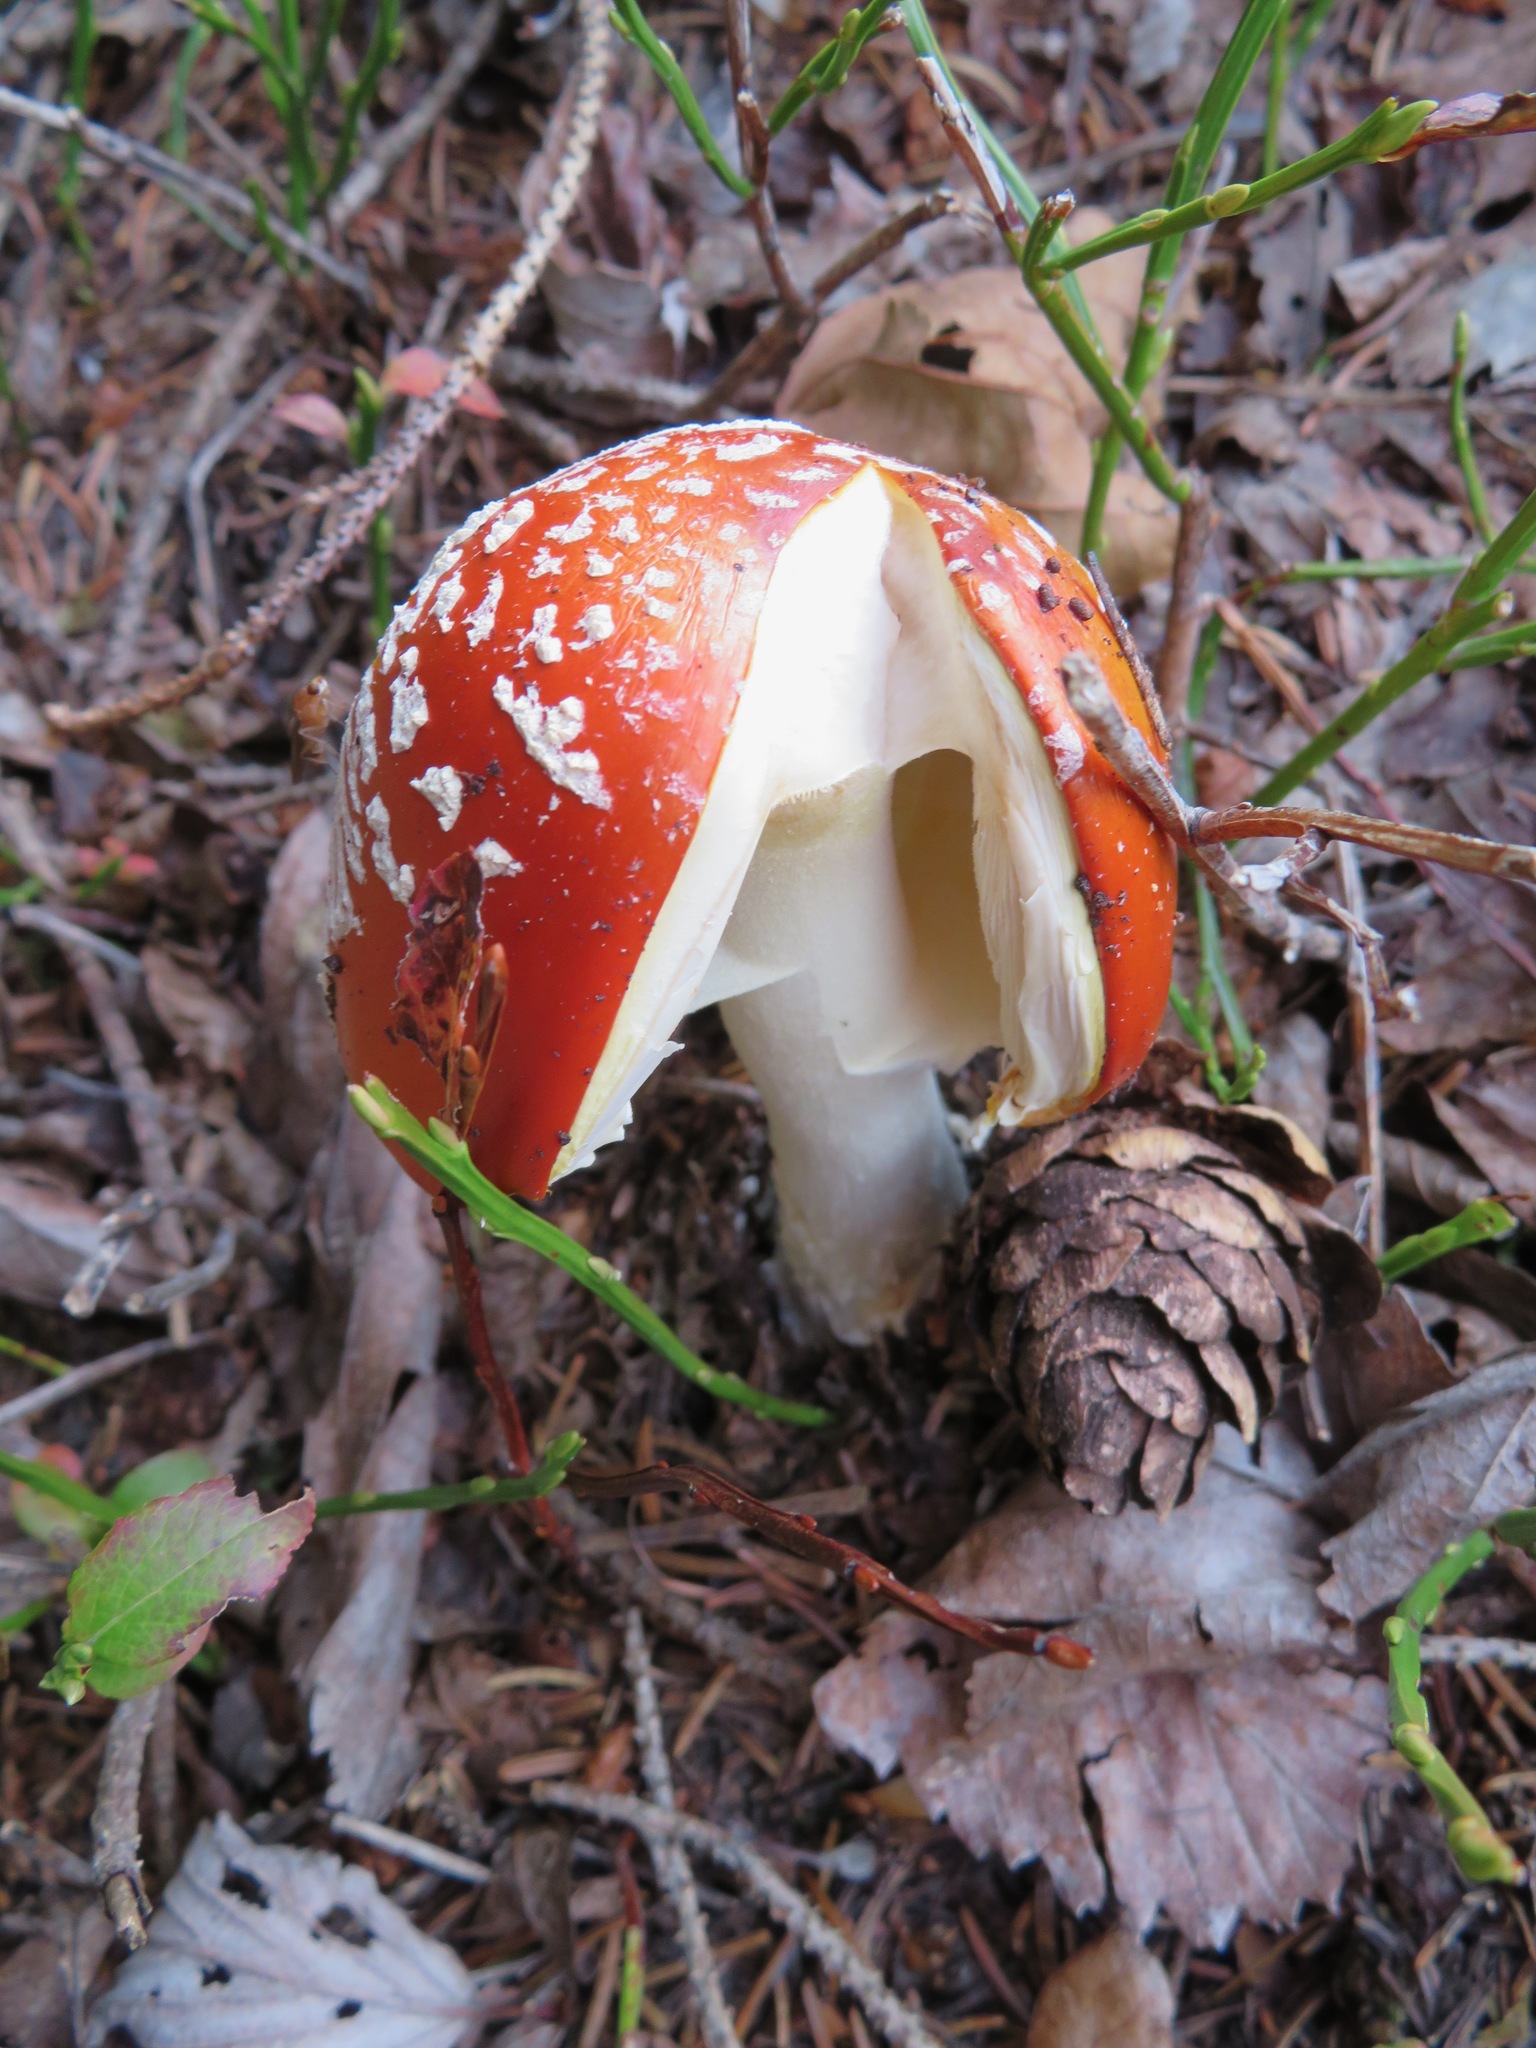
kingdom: Fungi
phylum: Basidiomycota
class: Agaricomycetes
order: Agaricales
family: Amanitaceae
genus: Amanita
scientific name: Amanita muscaria
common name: Fly agaric
